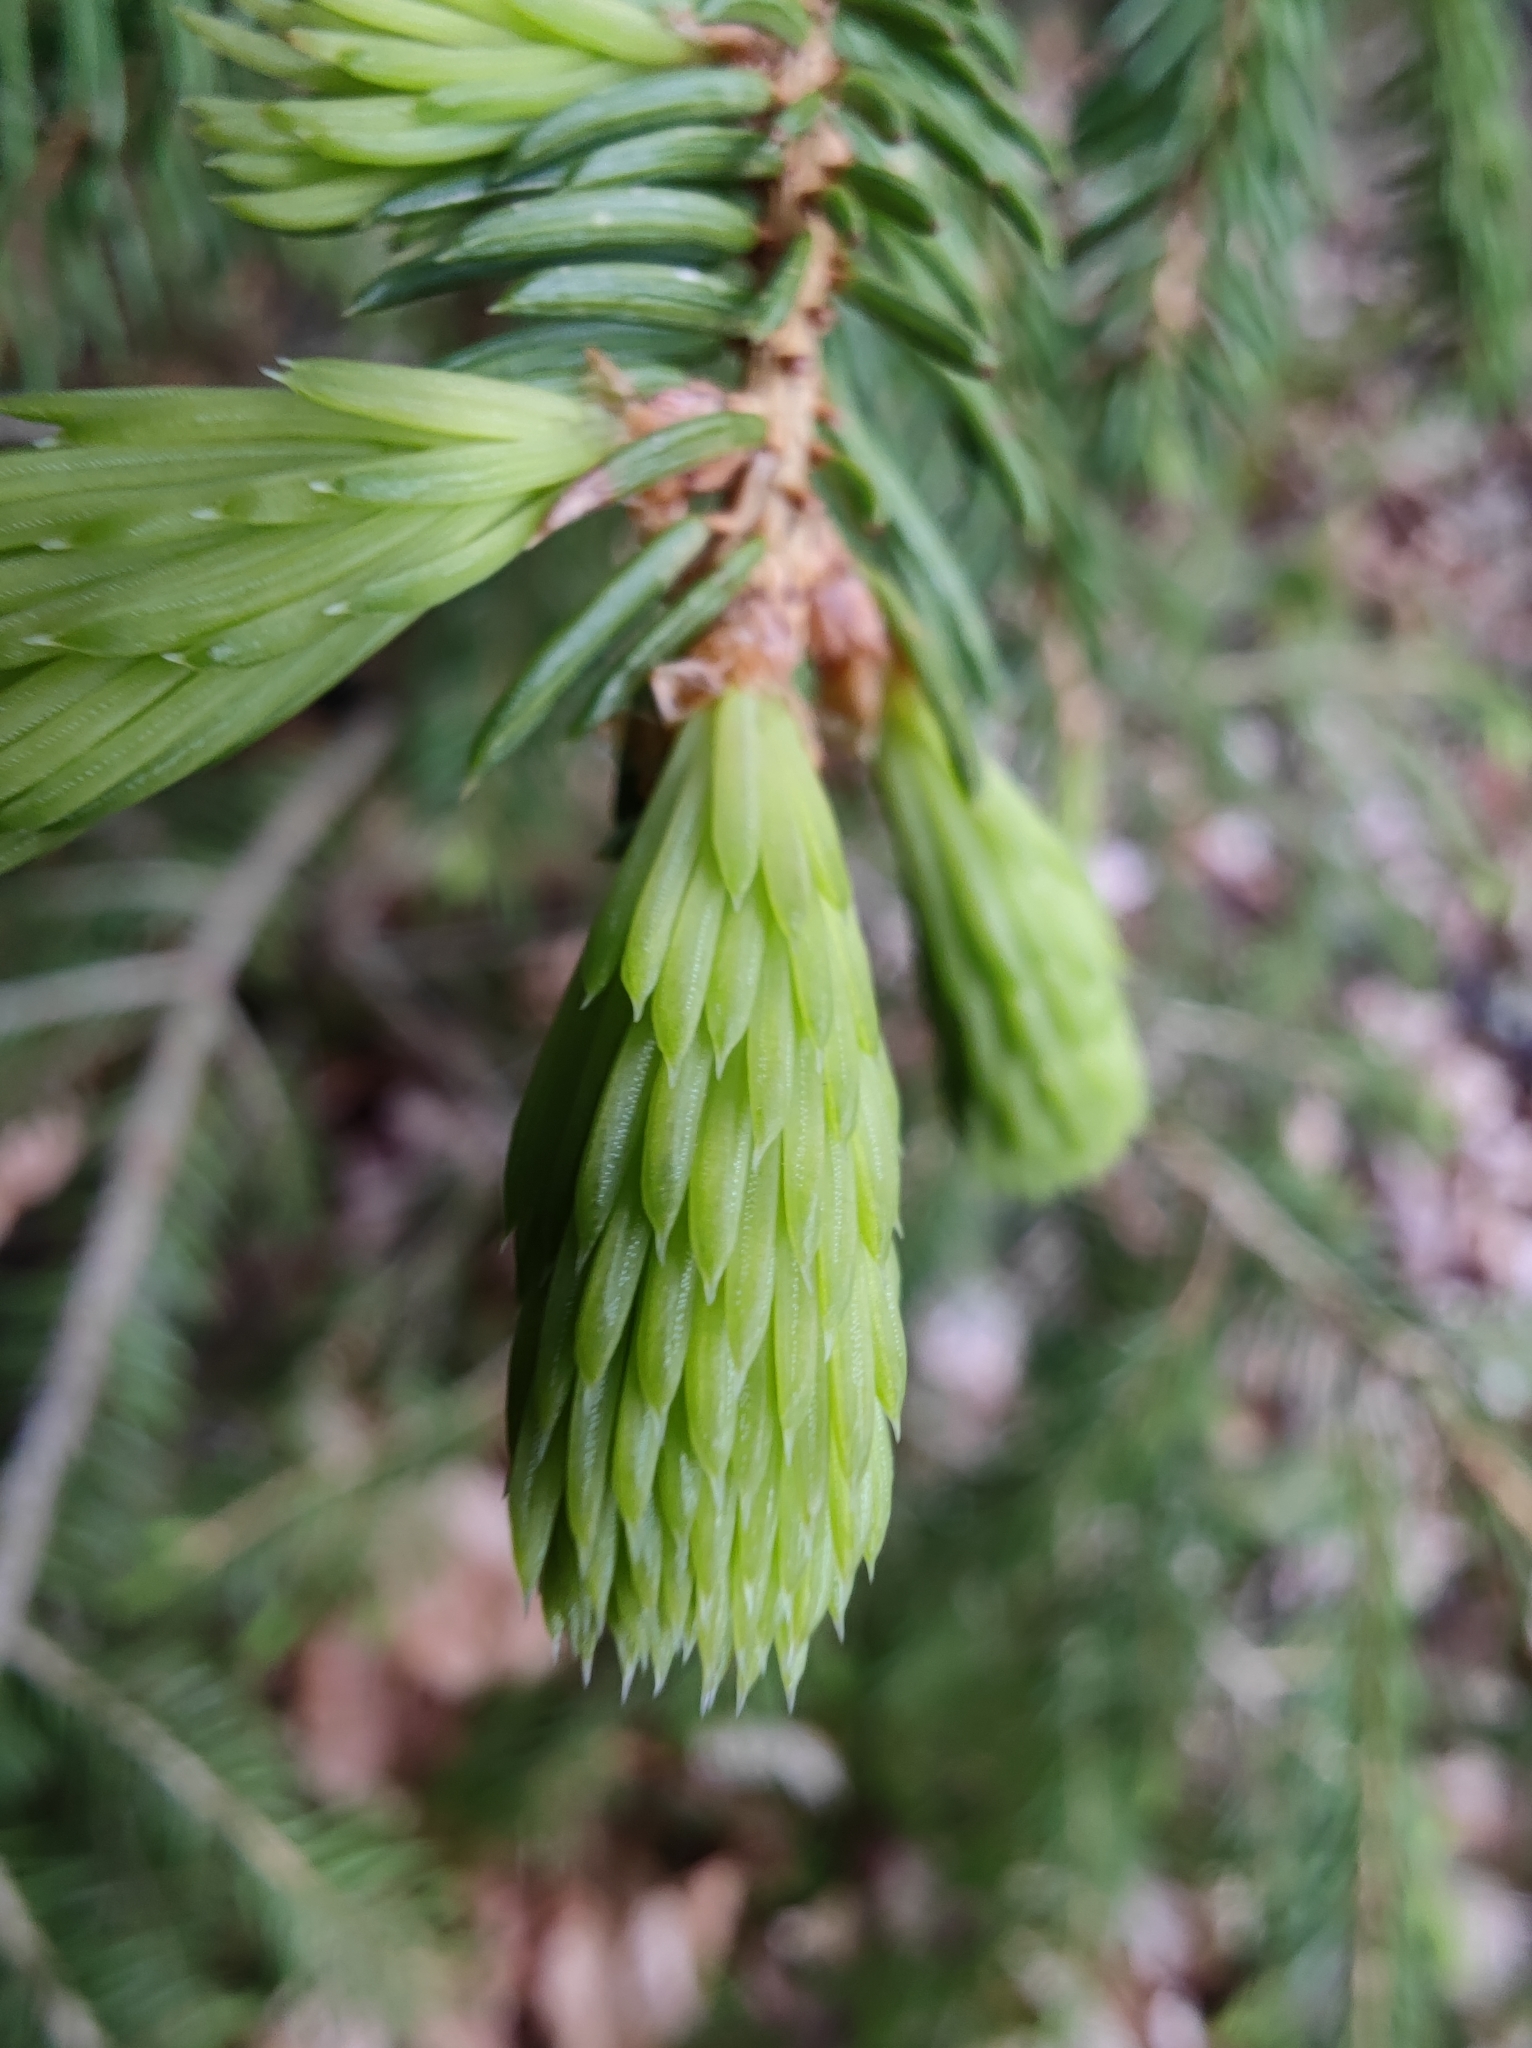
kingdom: Plantae
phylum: Tracheophyta
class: Pinopsida
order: Pinales
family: Pinaceae
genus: Picea
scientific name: Picea abies
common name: Norway spruce
